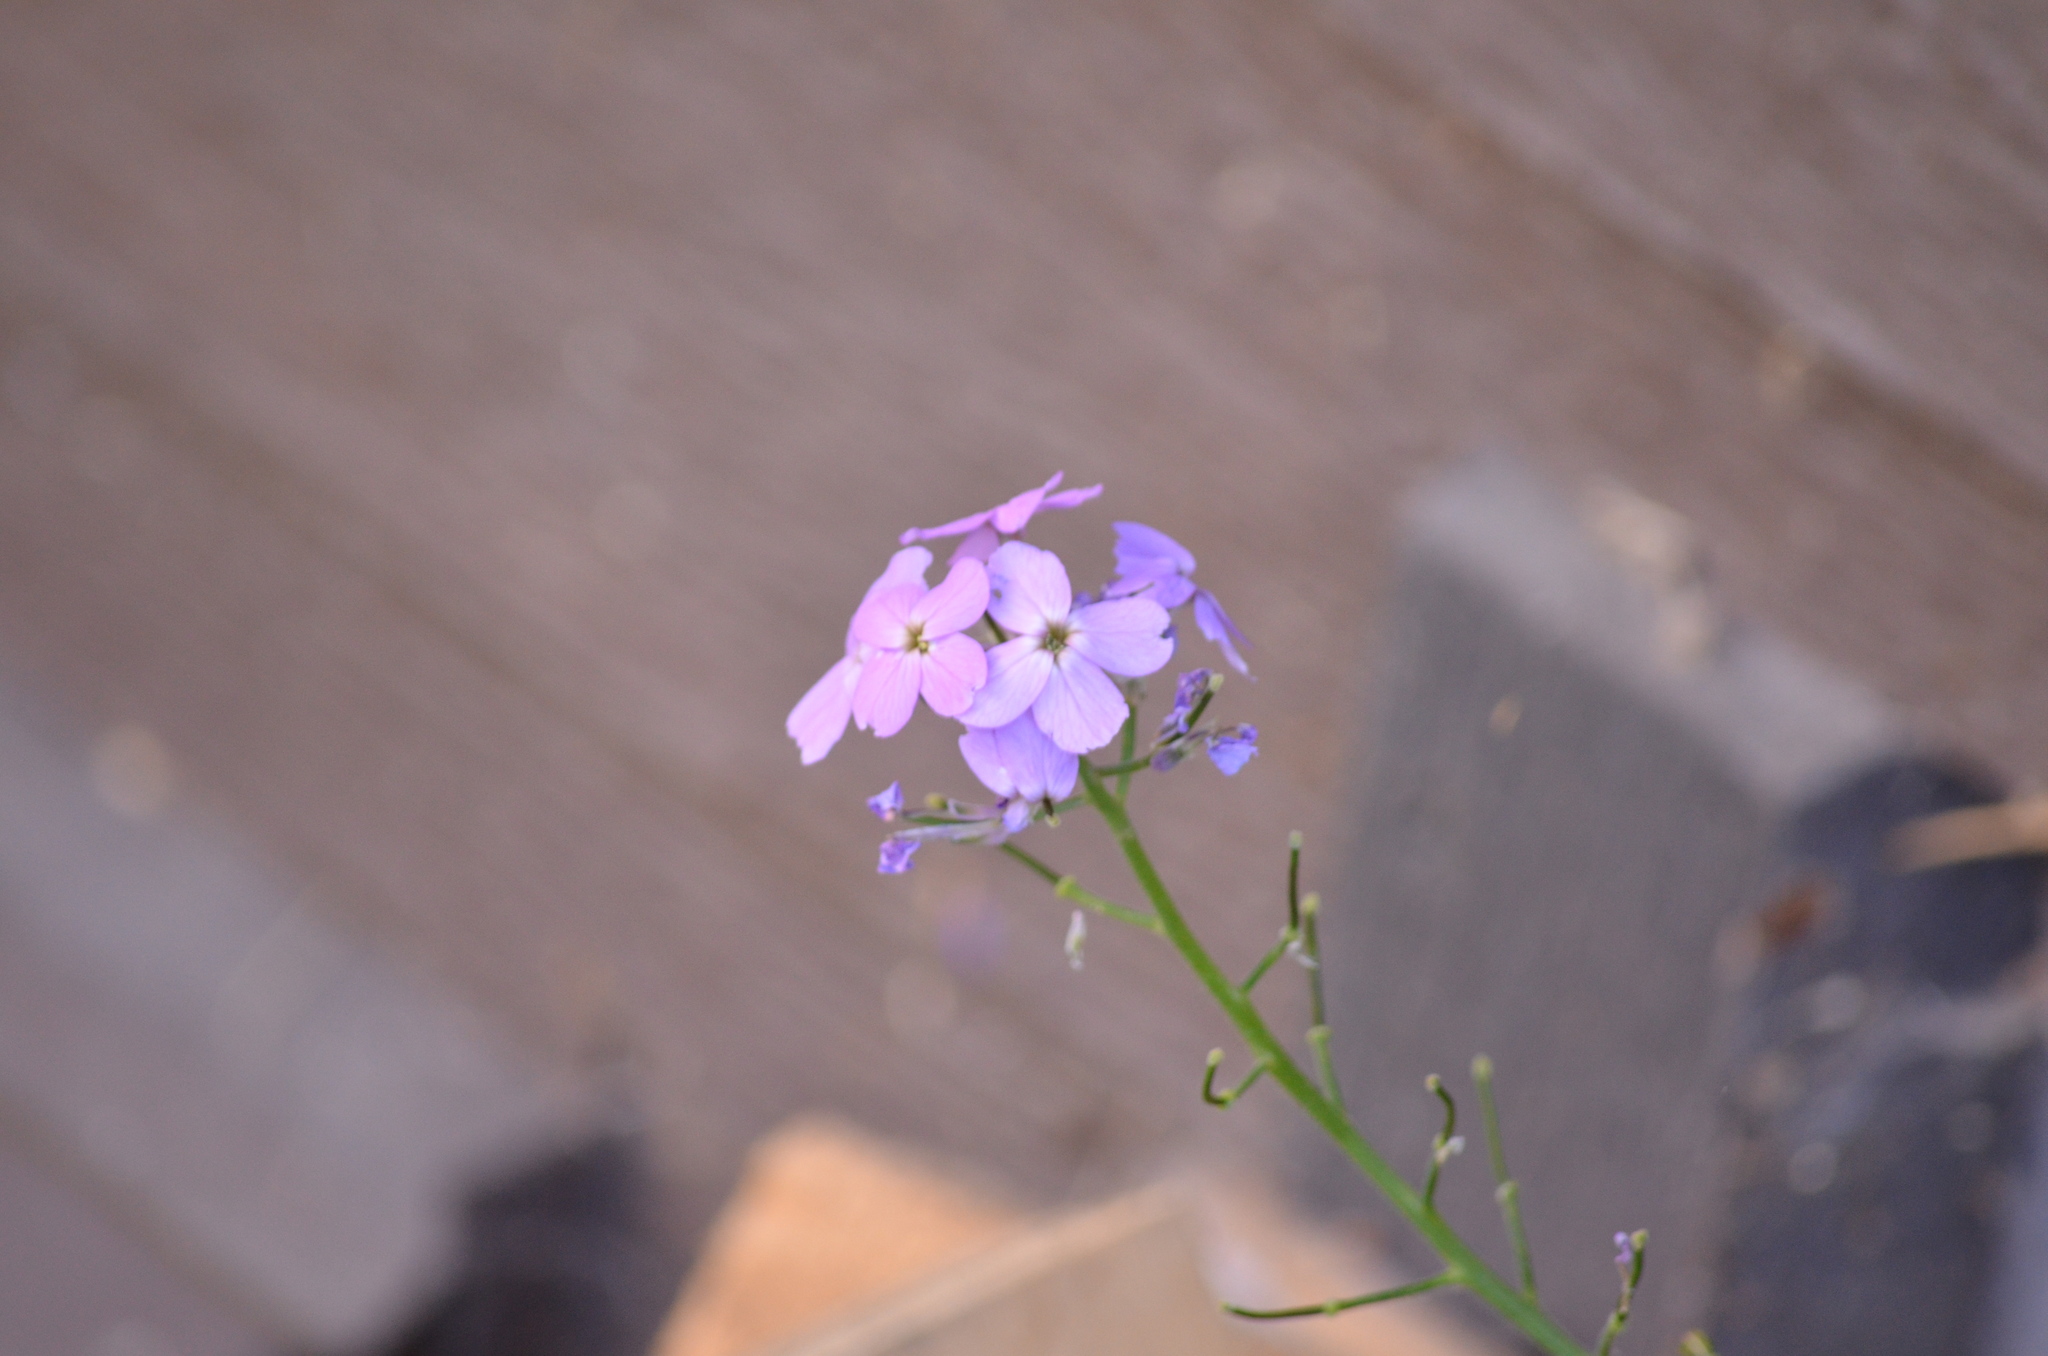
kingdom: Plantae
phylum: Tracheophyta
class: Magnoliopsida
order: Brassicales
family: Brassicaceae
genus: Hesperis
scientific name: Hesperis matronalis
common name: Dame's-violet
